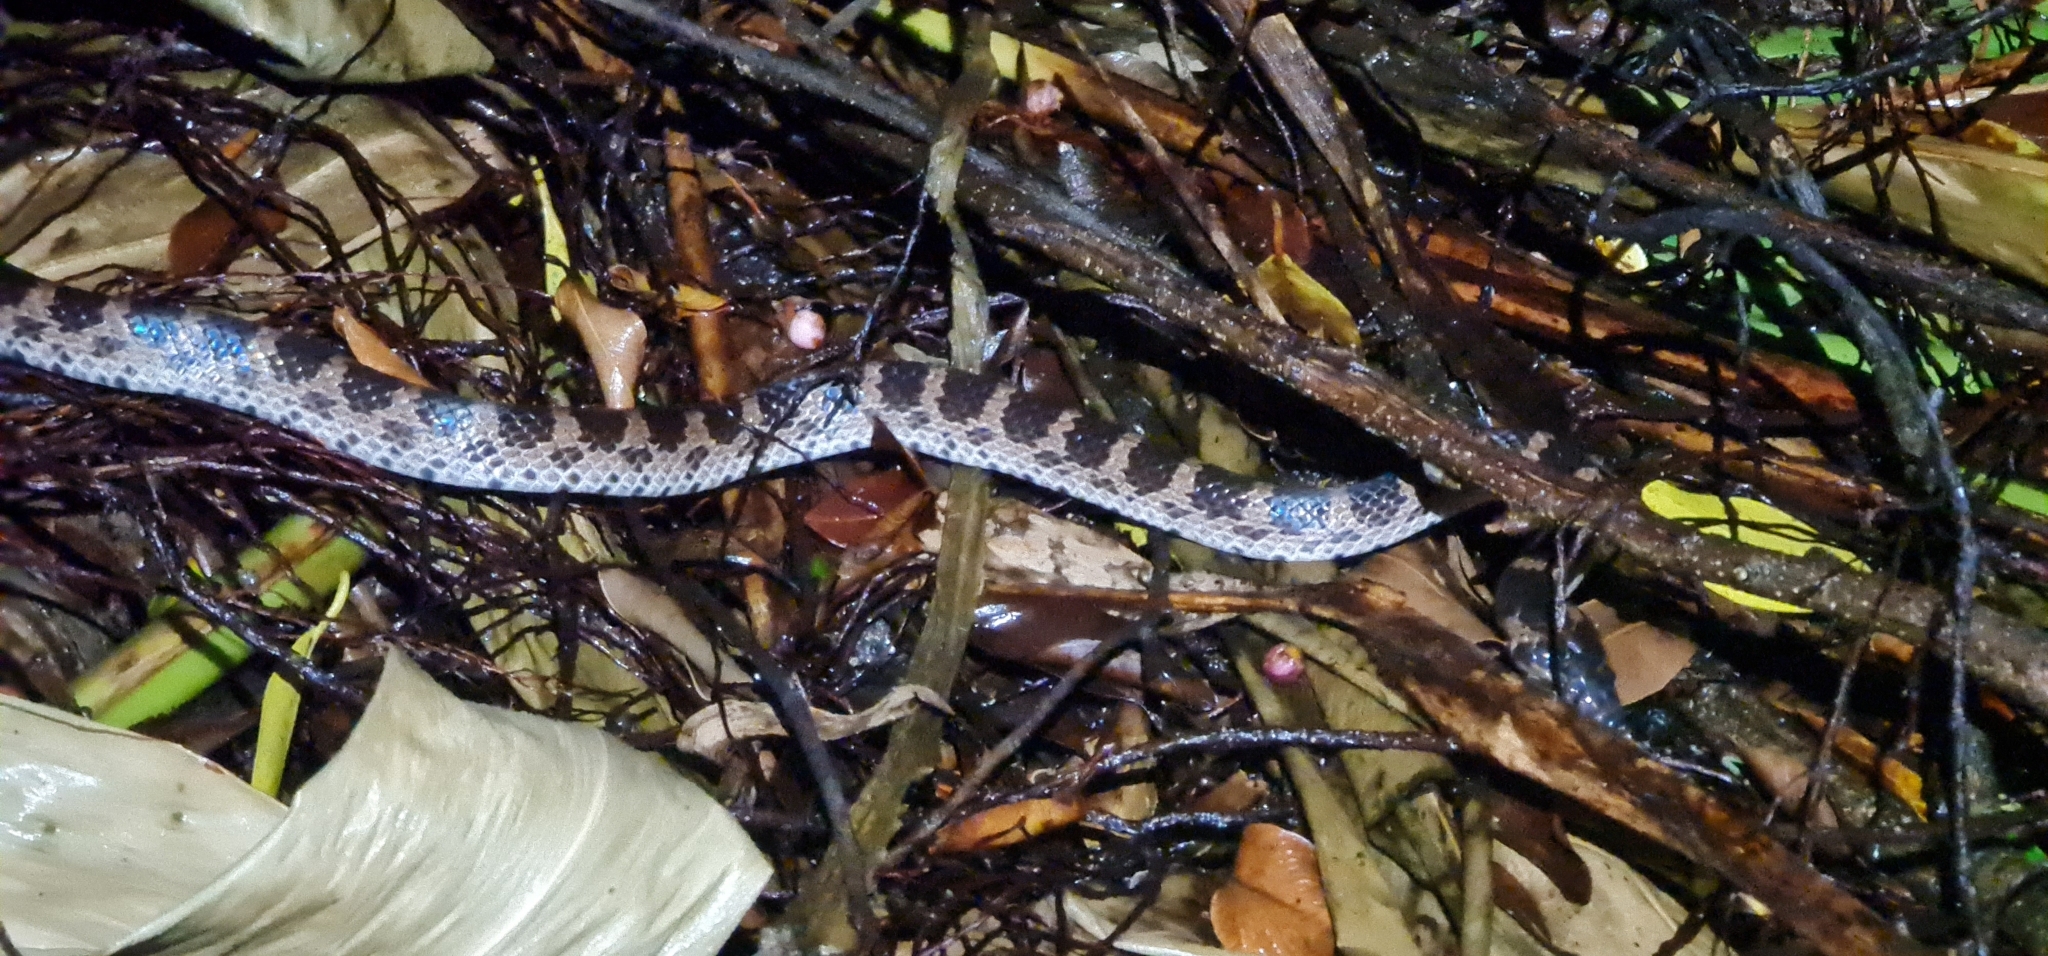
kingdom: Animalia
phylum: Chordata
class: Squamata
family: Colubridae
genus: Lycodon
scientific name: Lycodon rufozonatus
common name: Red-banded snake
